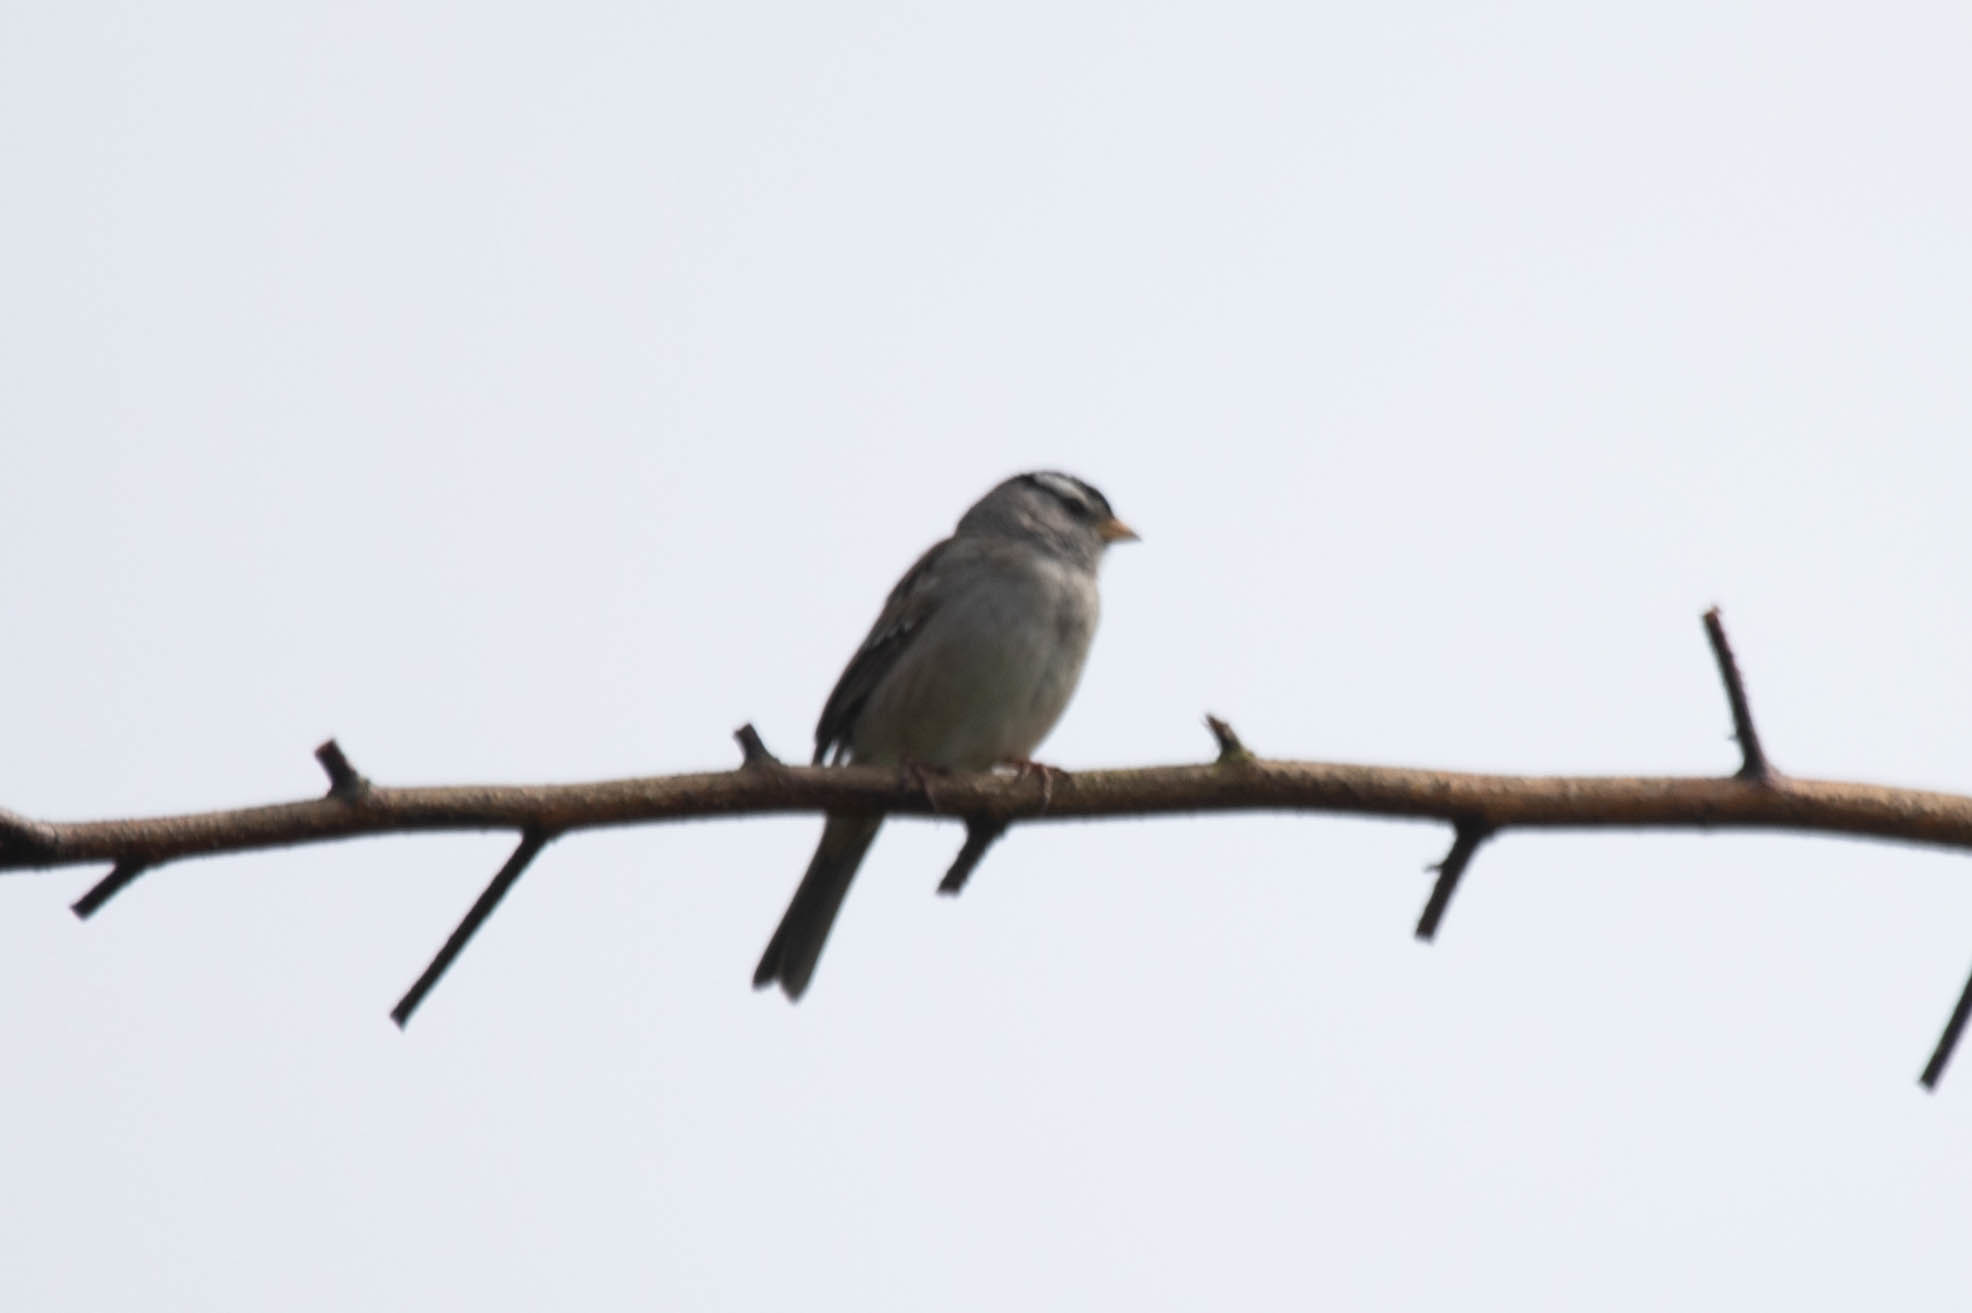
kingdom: Animalia
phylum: Chordata
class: Aves
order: Passeriformes
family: Passerellidae
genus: Zonotrichia
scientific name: Zonotrichia leucophrys
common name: White-crowned sparrow
